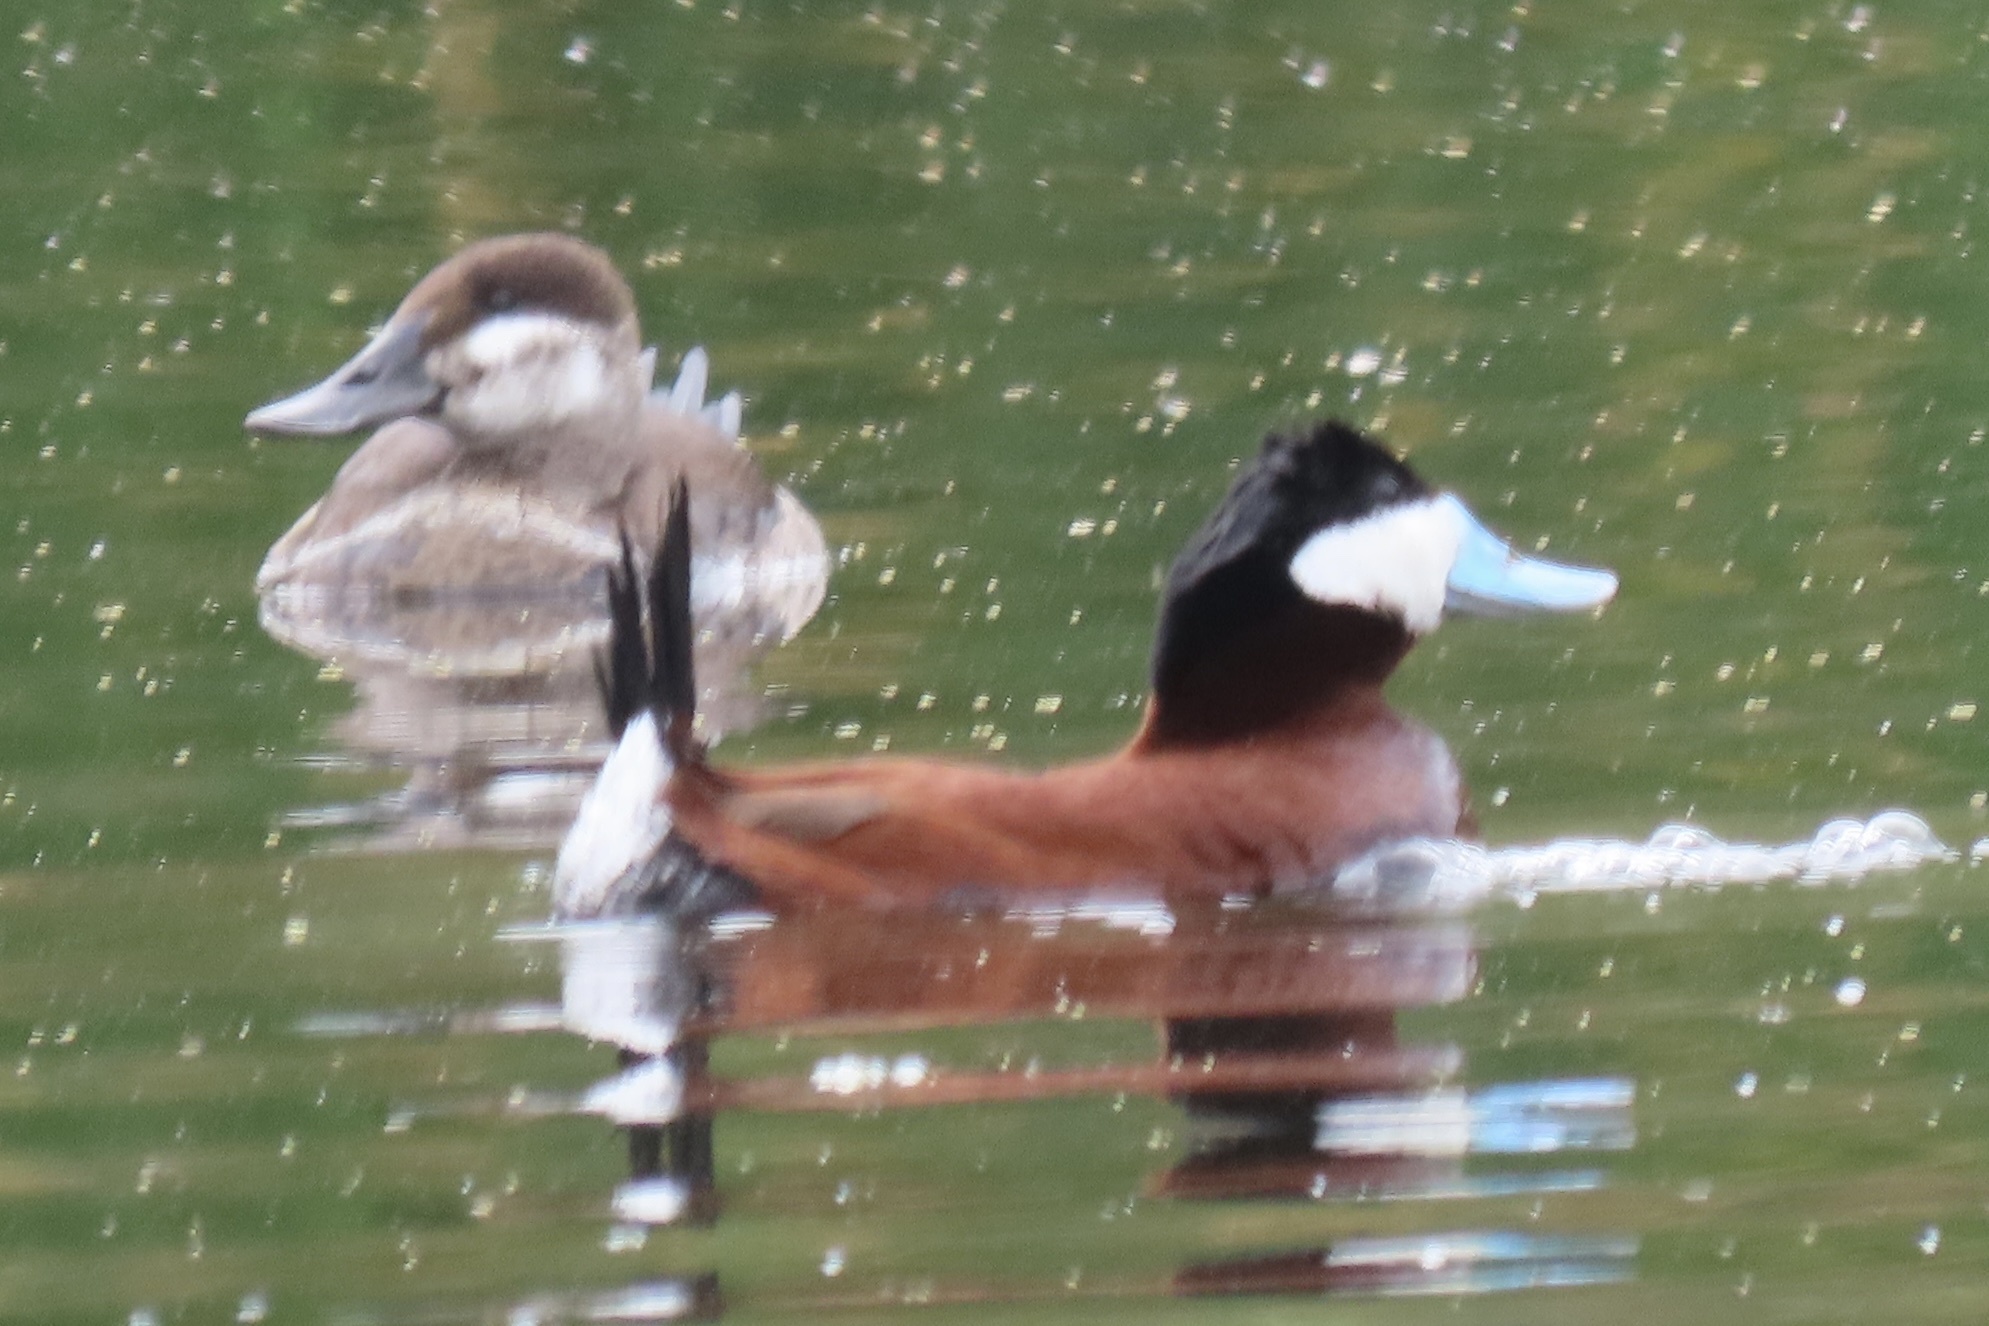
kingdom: Animalia
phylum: Chordata
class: Aves
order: Anseriformes
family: Anatidae
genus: Oxyura
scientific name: Oxyura jamaicensis
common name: Ruddy duck
